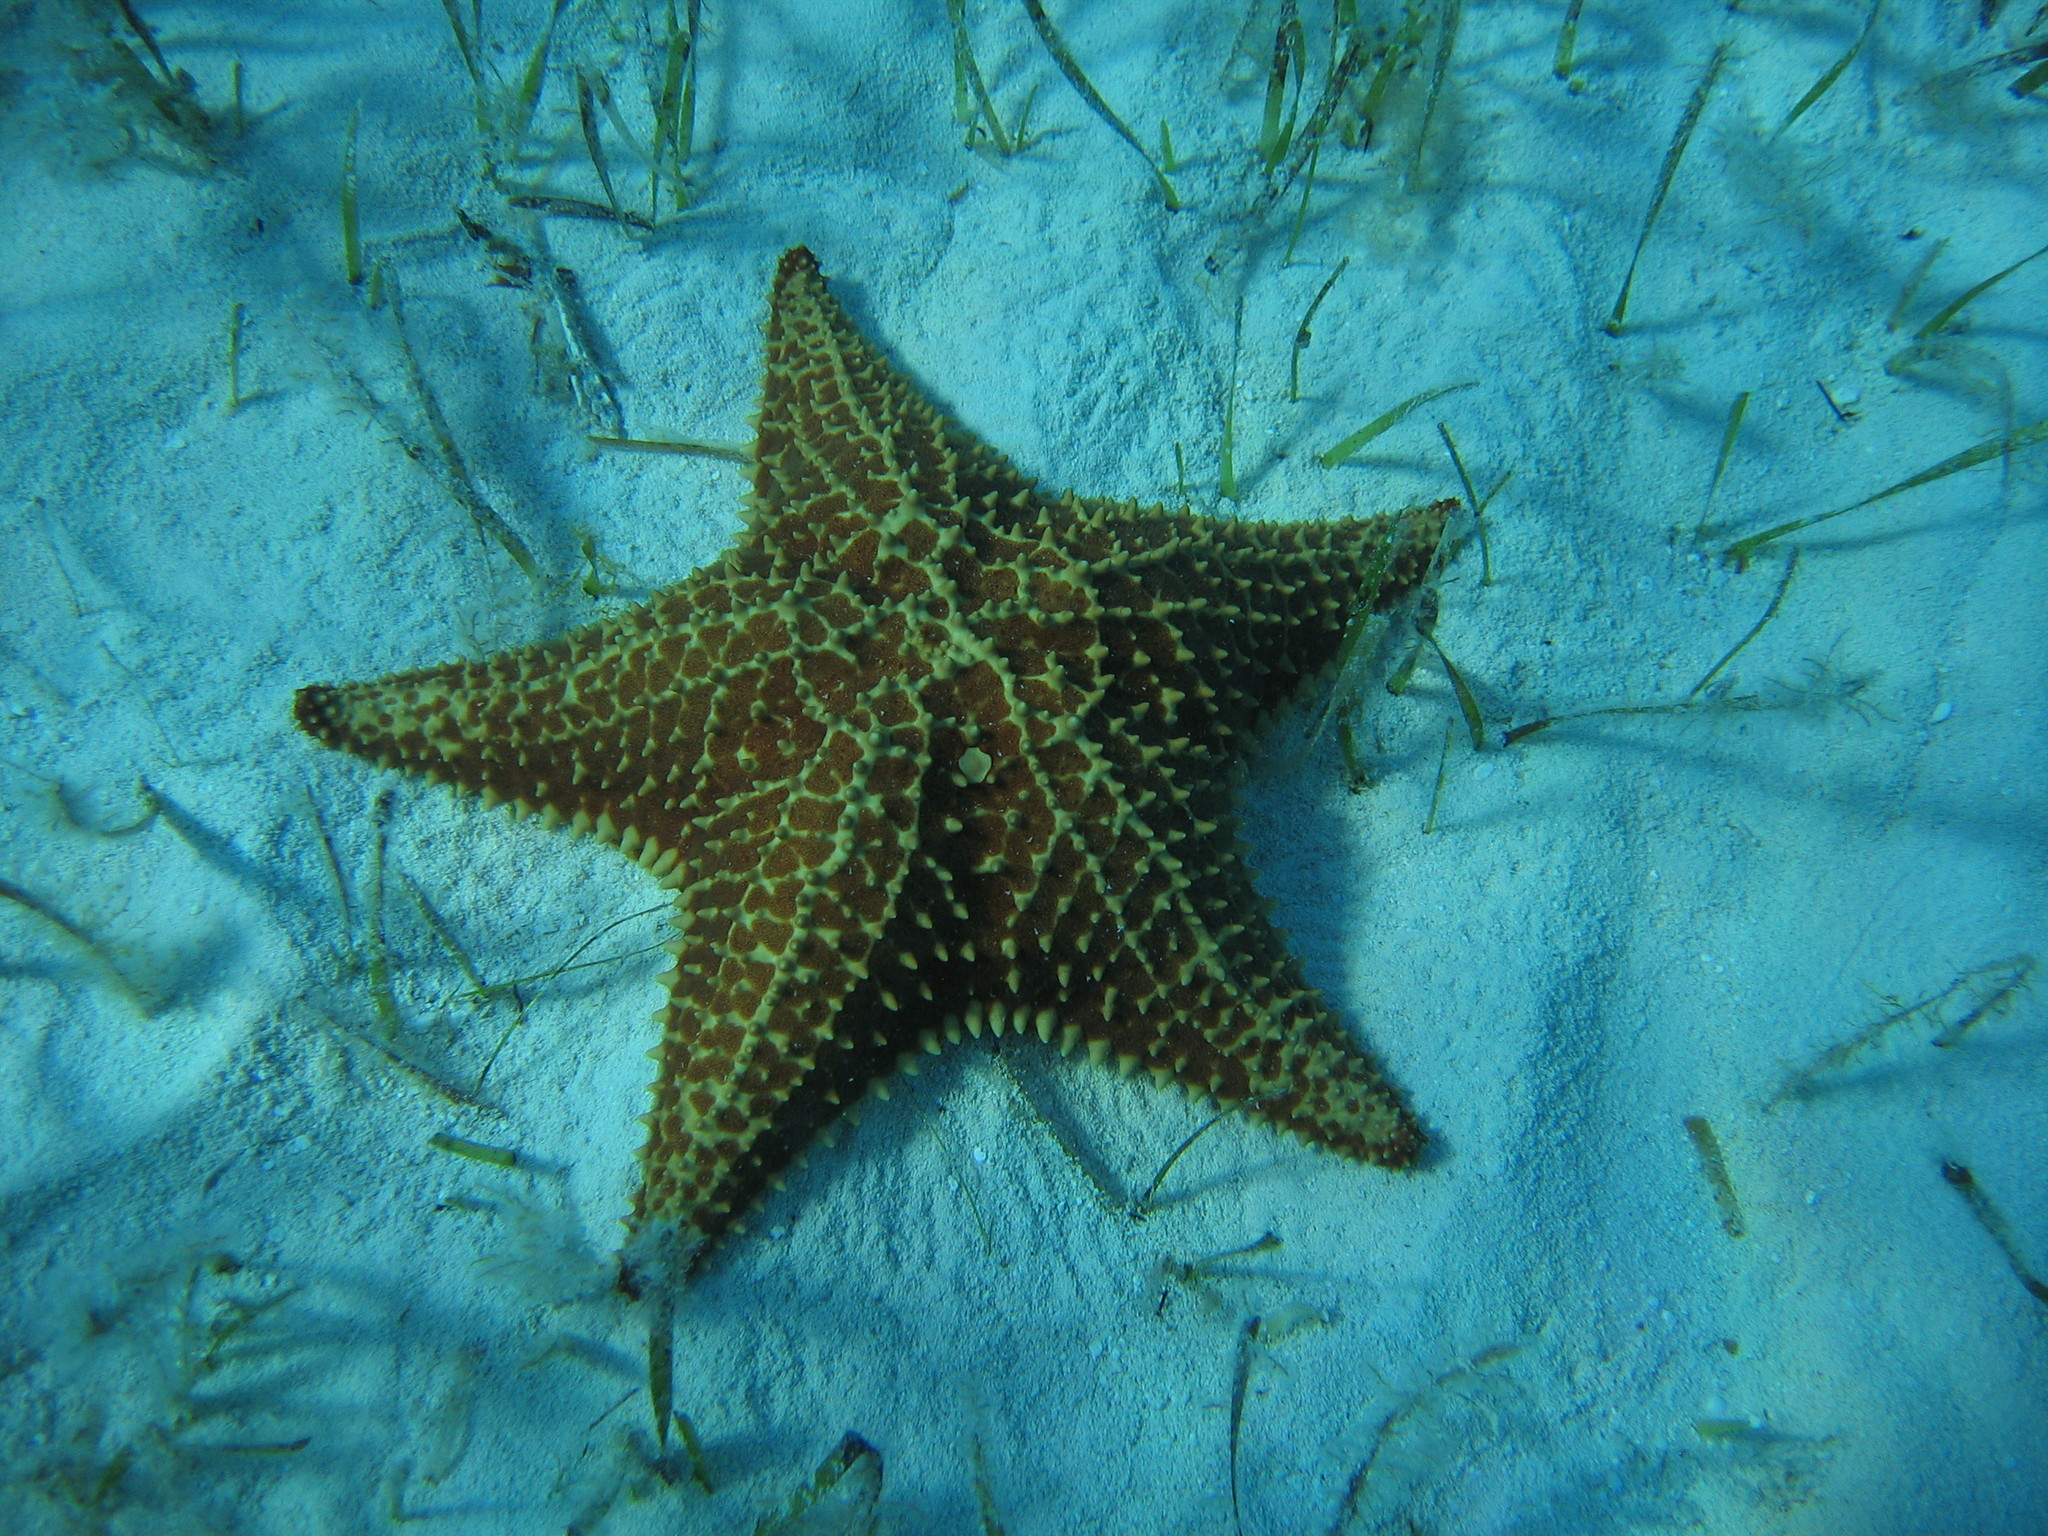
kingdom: Animalia
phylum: Echinodermata
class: Asteroidea
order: Valvatida
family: Oreasteridae
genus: Oreaster
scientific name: Oreaster reticulatus
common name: Cushion sea star
